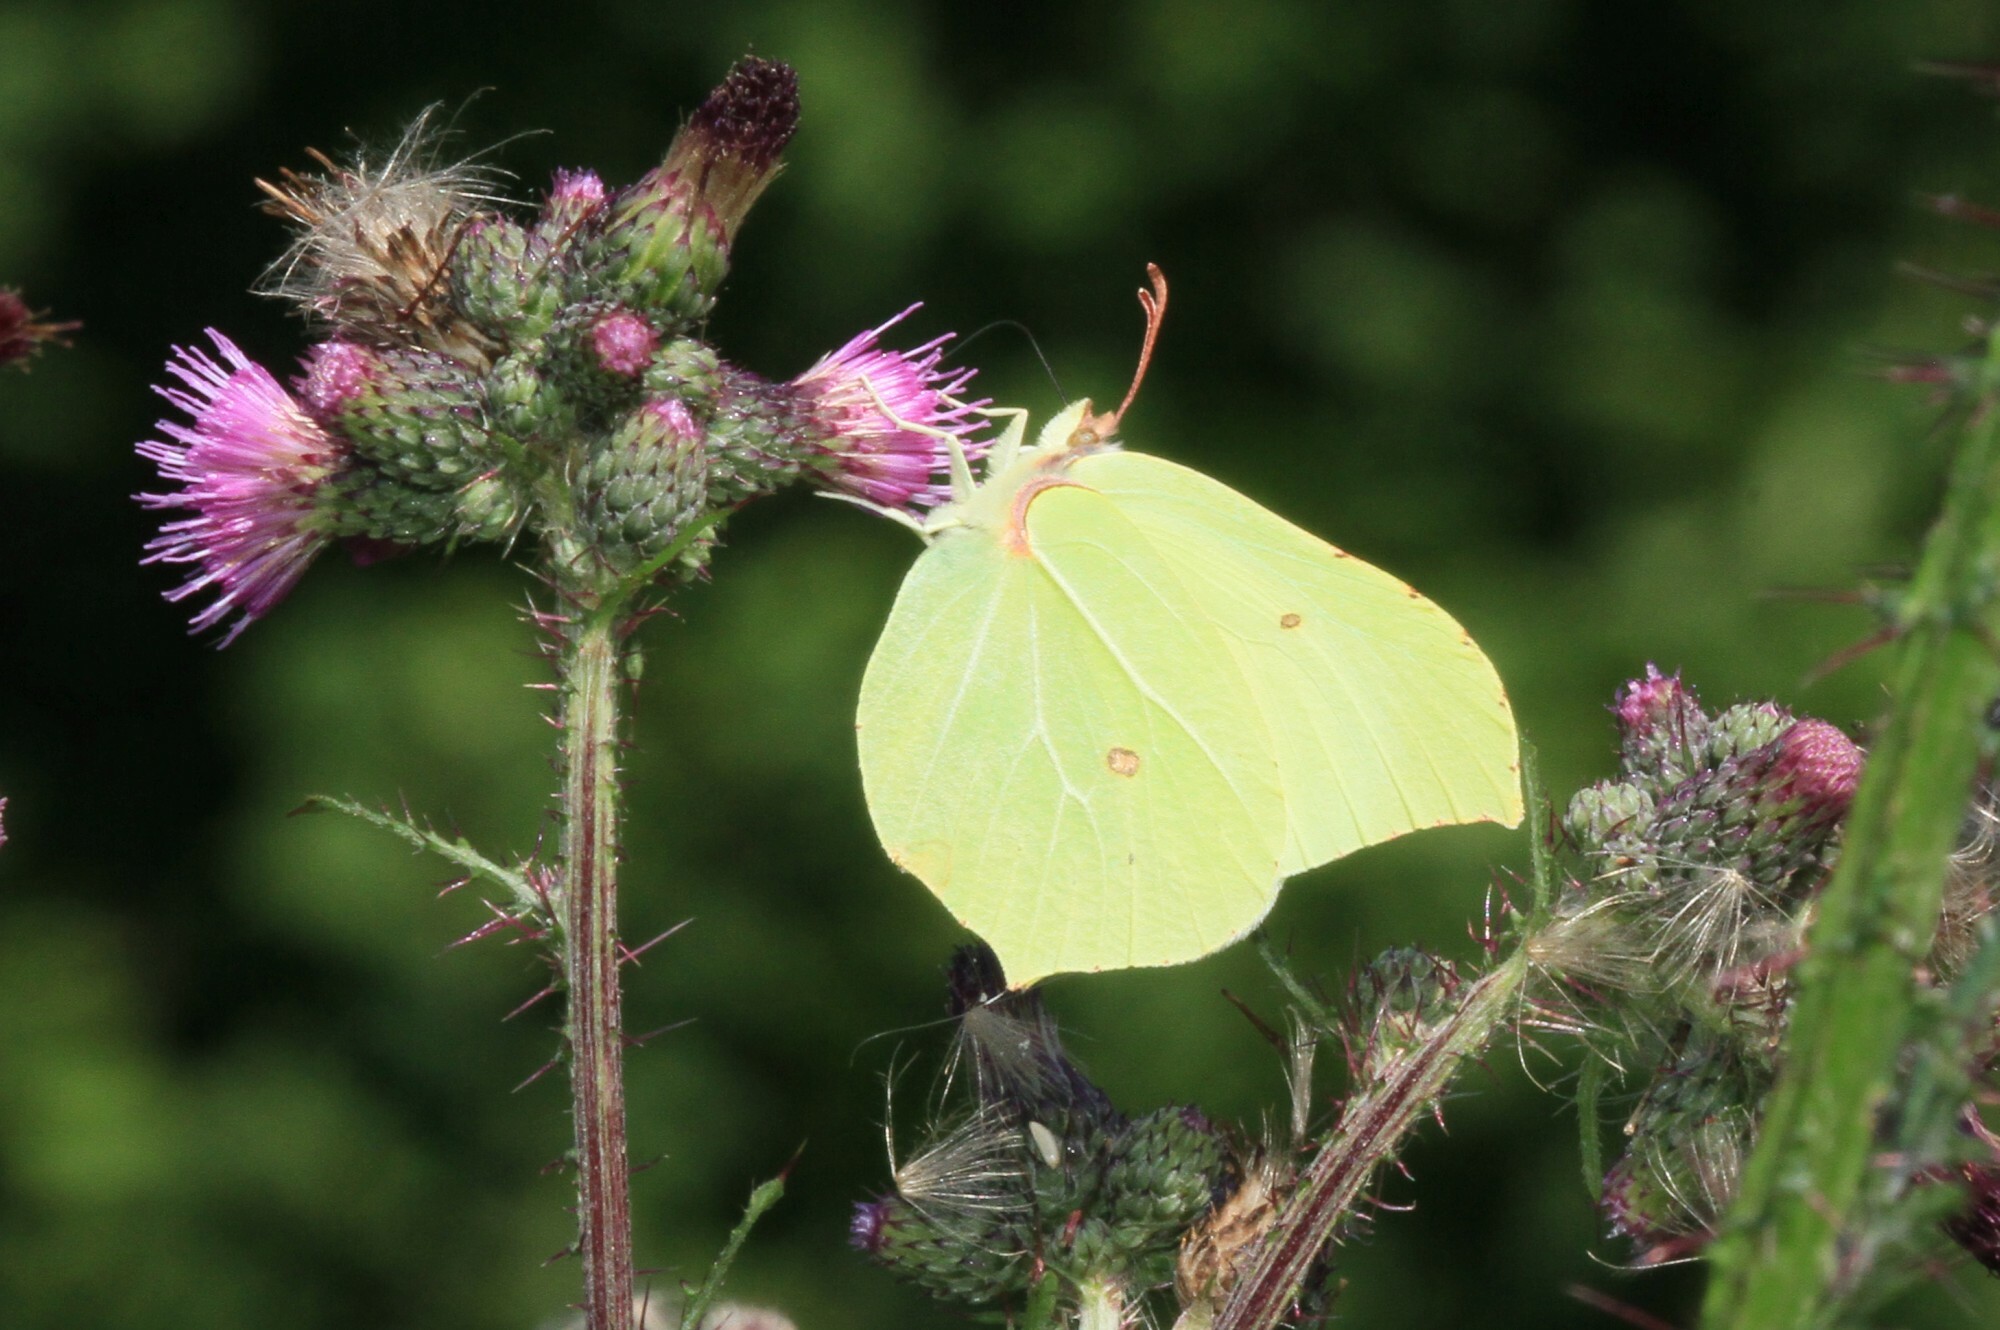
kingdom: Animalia
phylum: Arthropoda
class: Insecta
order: Lepidoptera
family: Pieridae
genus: Gonepteryx
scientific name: Gonepteryx rhamni
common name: Brimstone
